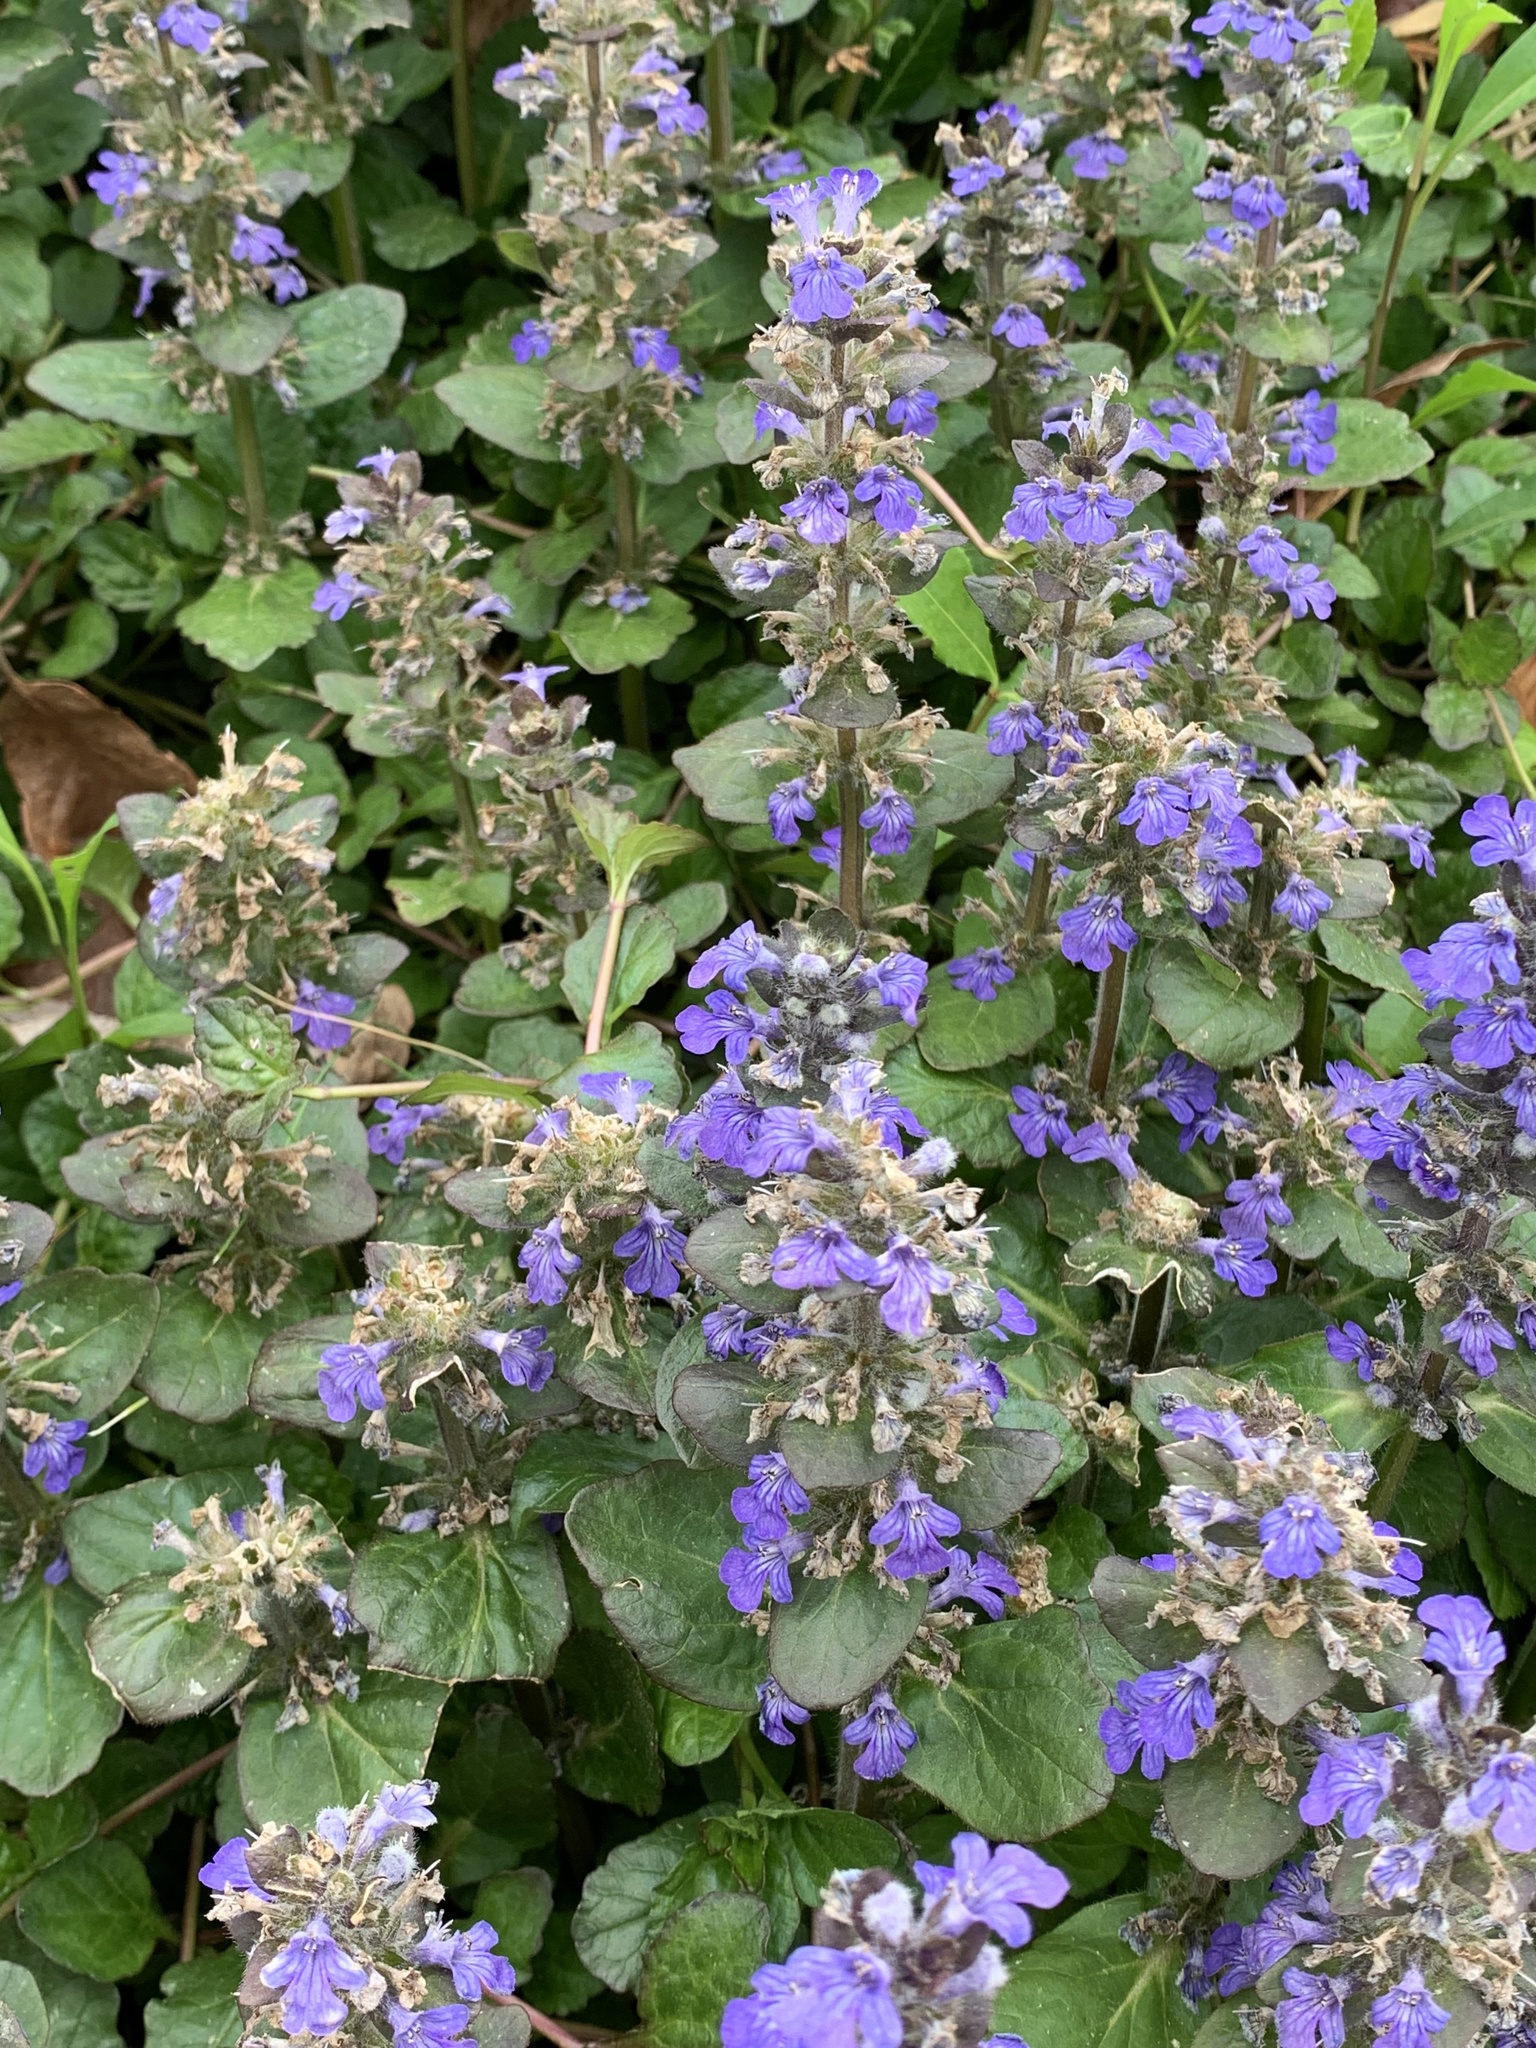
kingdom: Plantae
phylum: Tracheophyta
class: Magnoliopsida
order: Lamiales
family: Lamiaceae
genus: Ajuga
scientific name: Ajuga reptans
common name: Bugle
